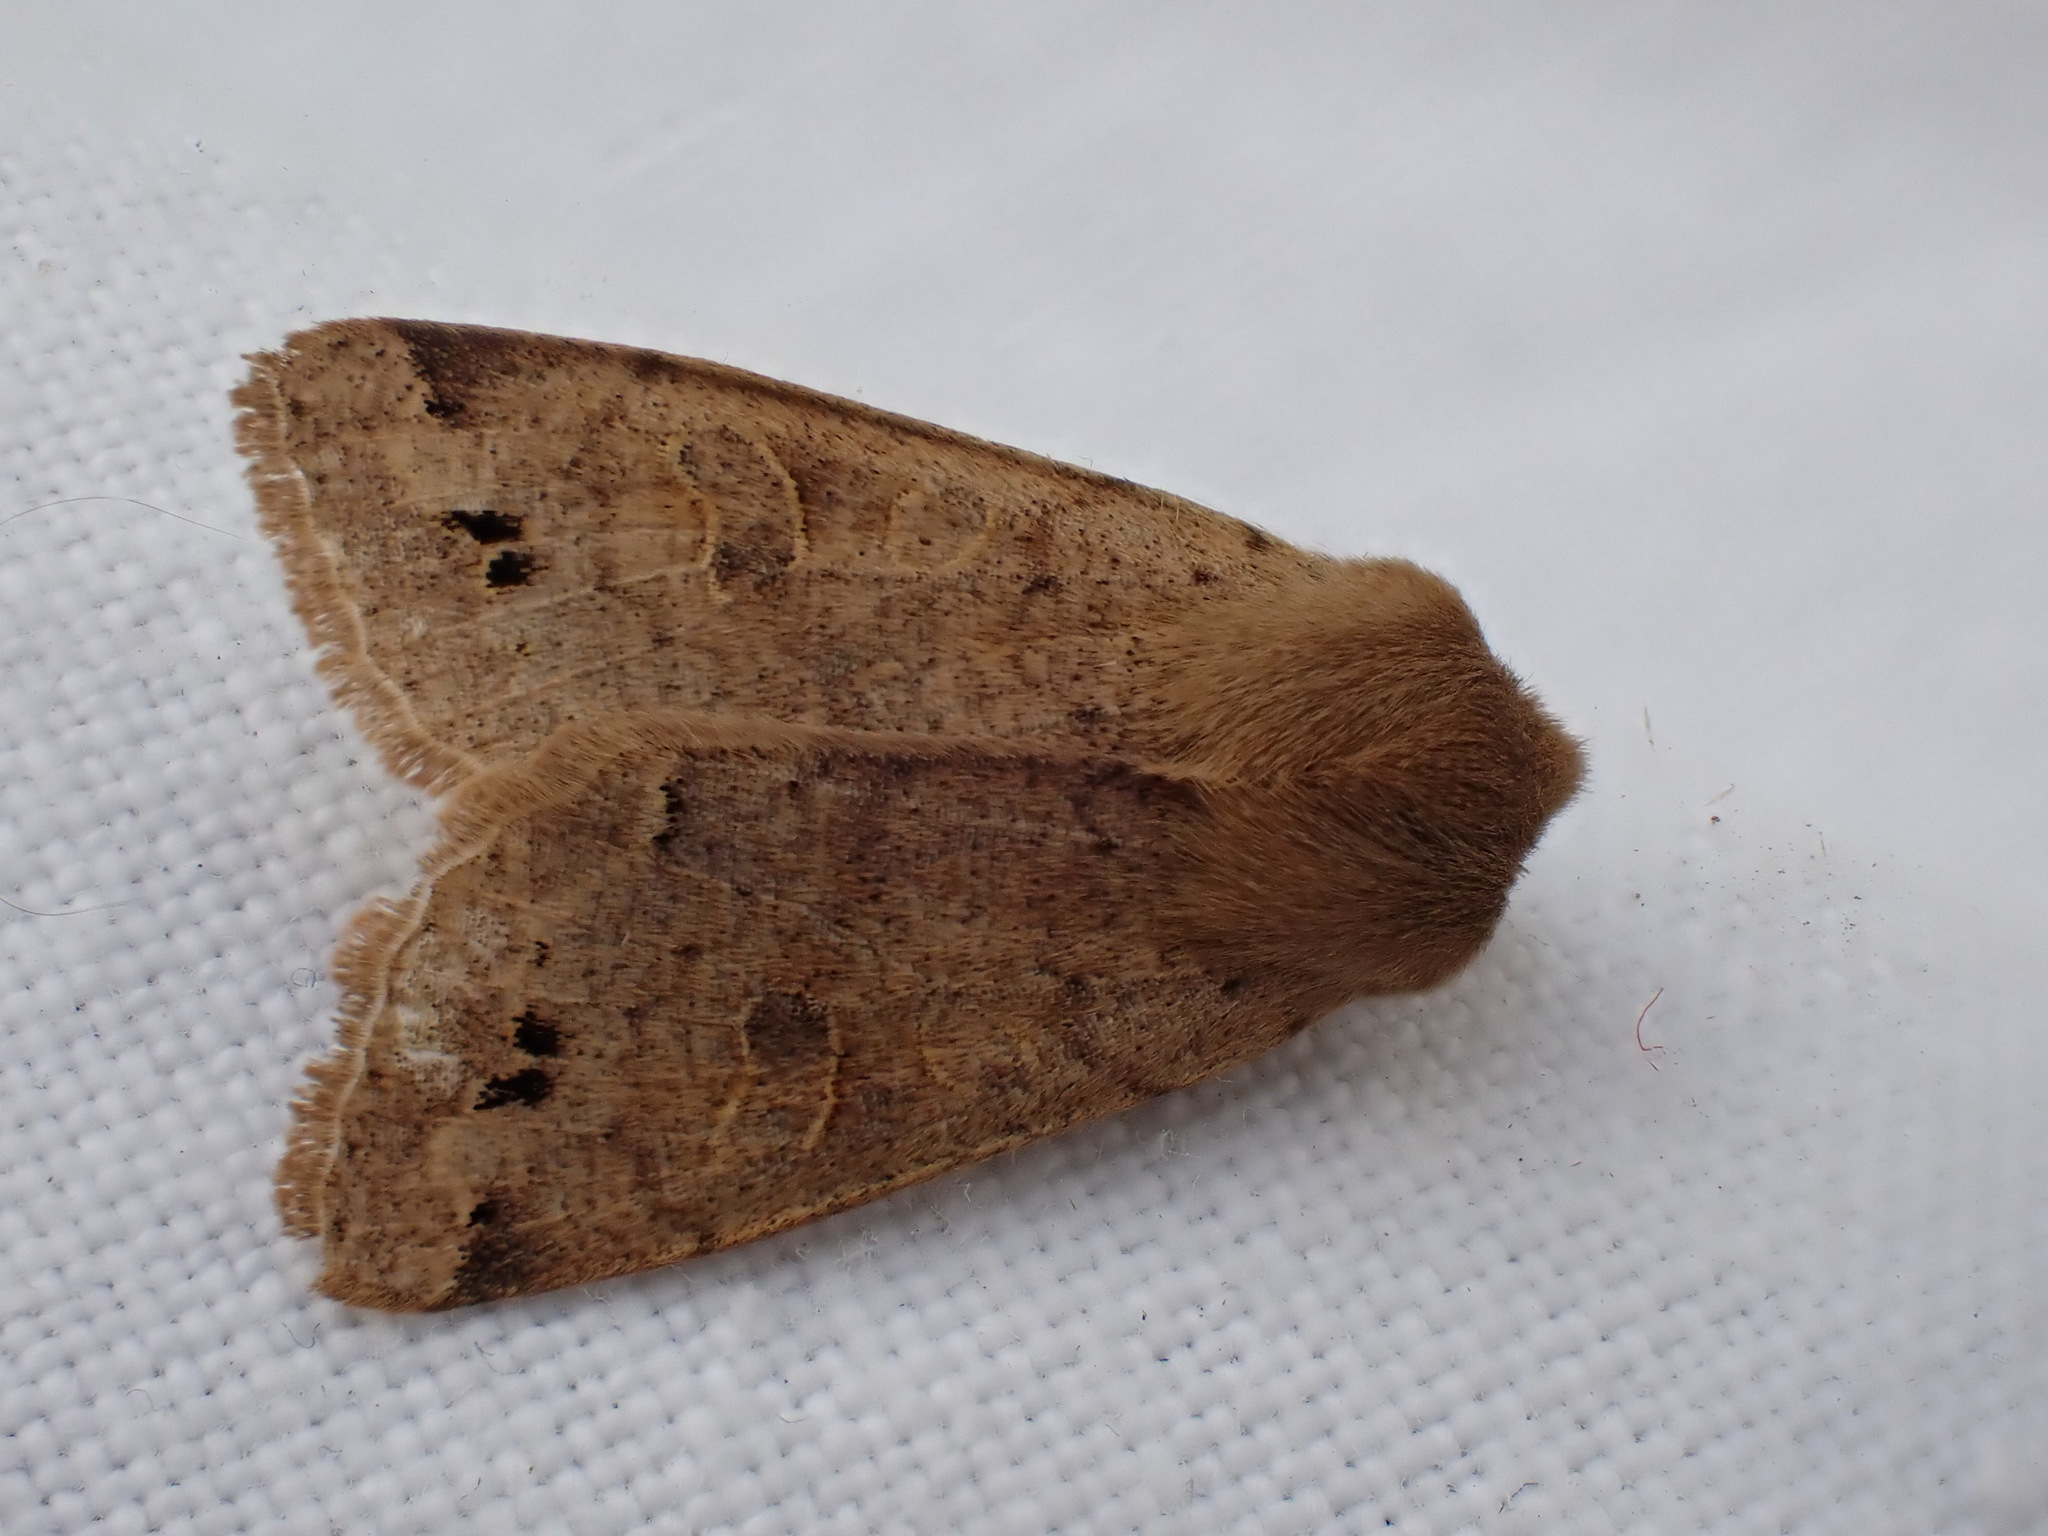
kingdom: Animalia
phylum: Arthropoda
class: Insecta
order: Lepidoptera
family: Noctuidae
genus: Anorthoa
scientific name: Anorthoa munda
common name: Twin-spotted quaker
